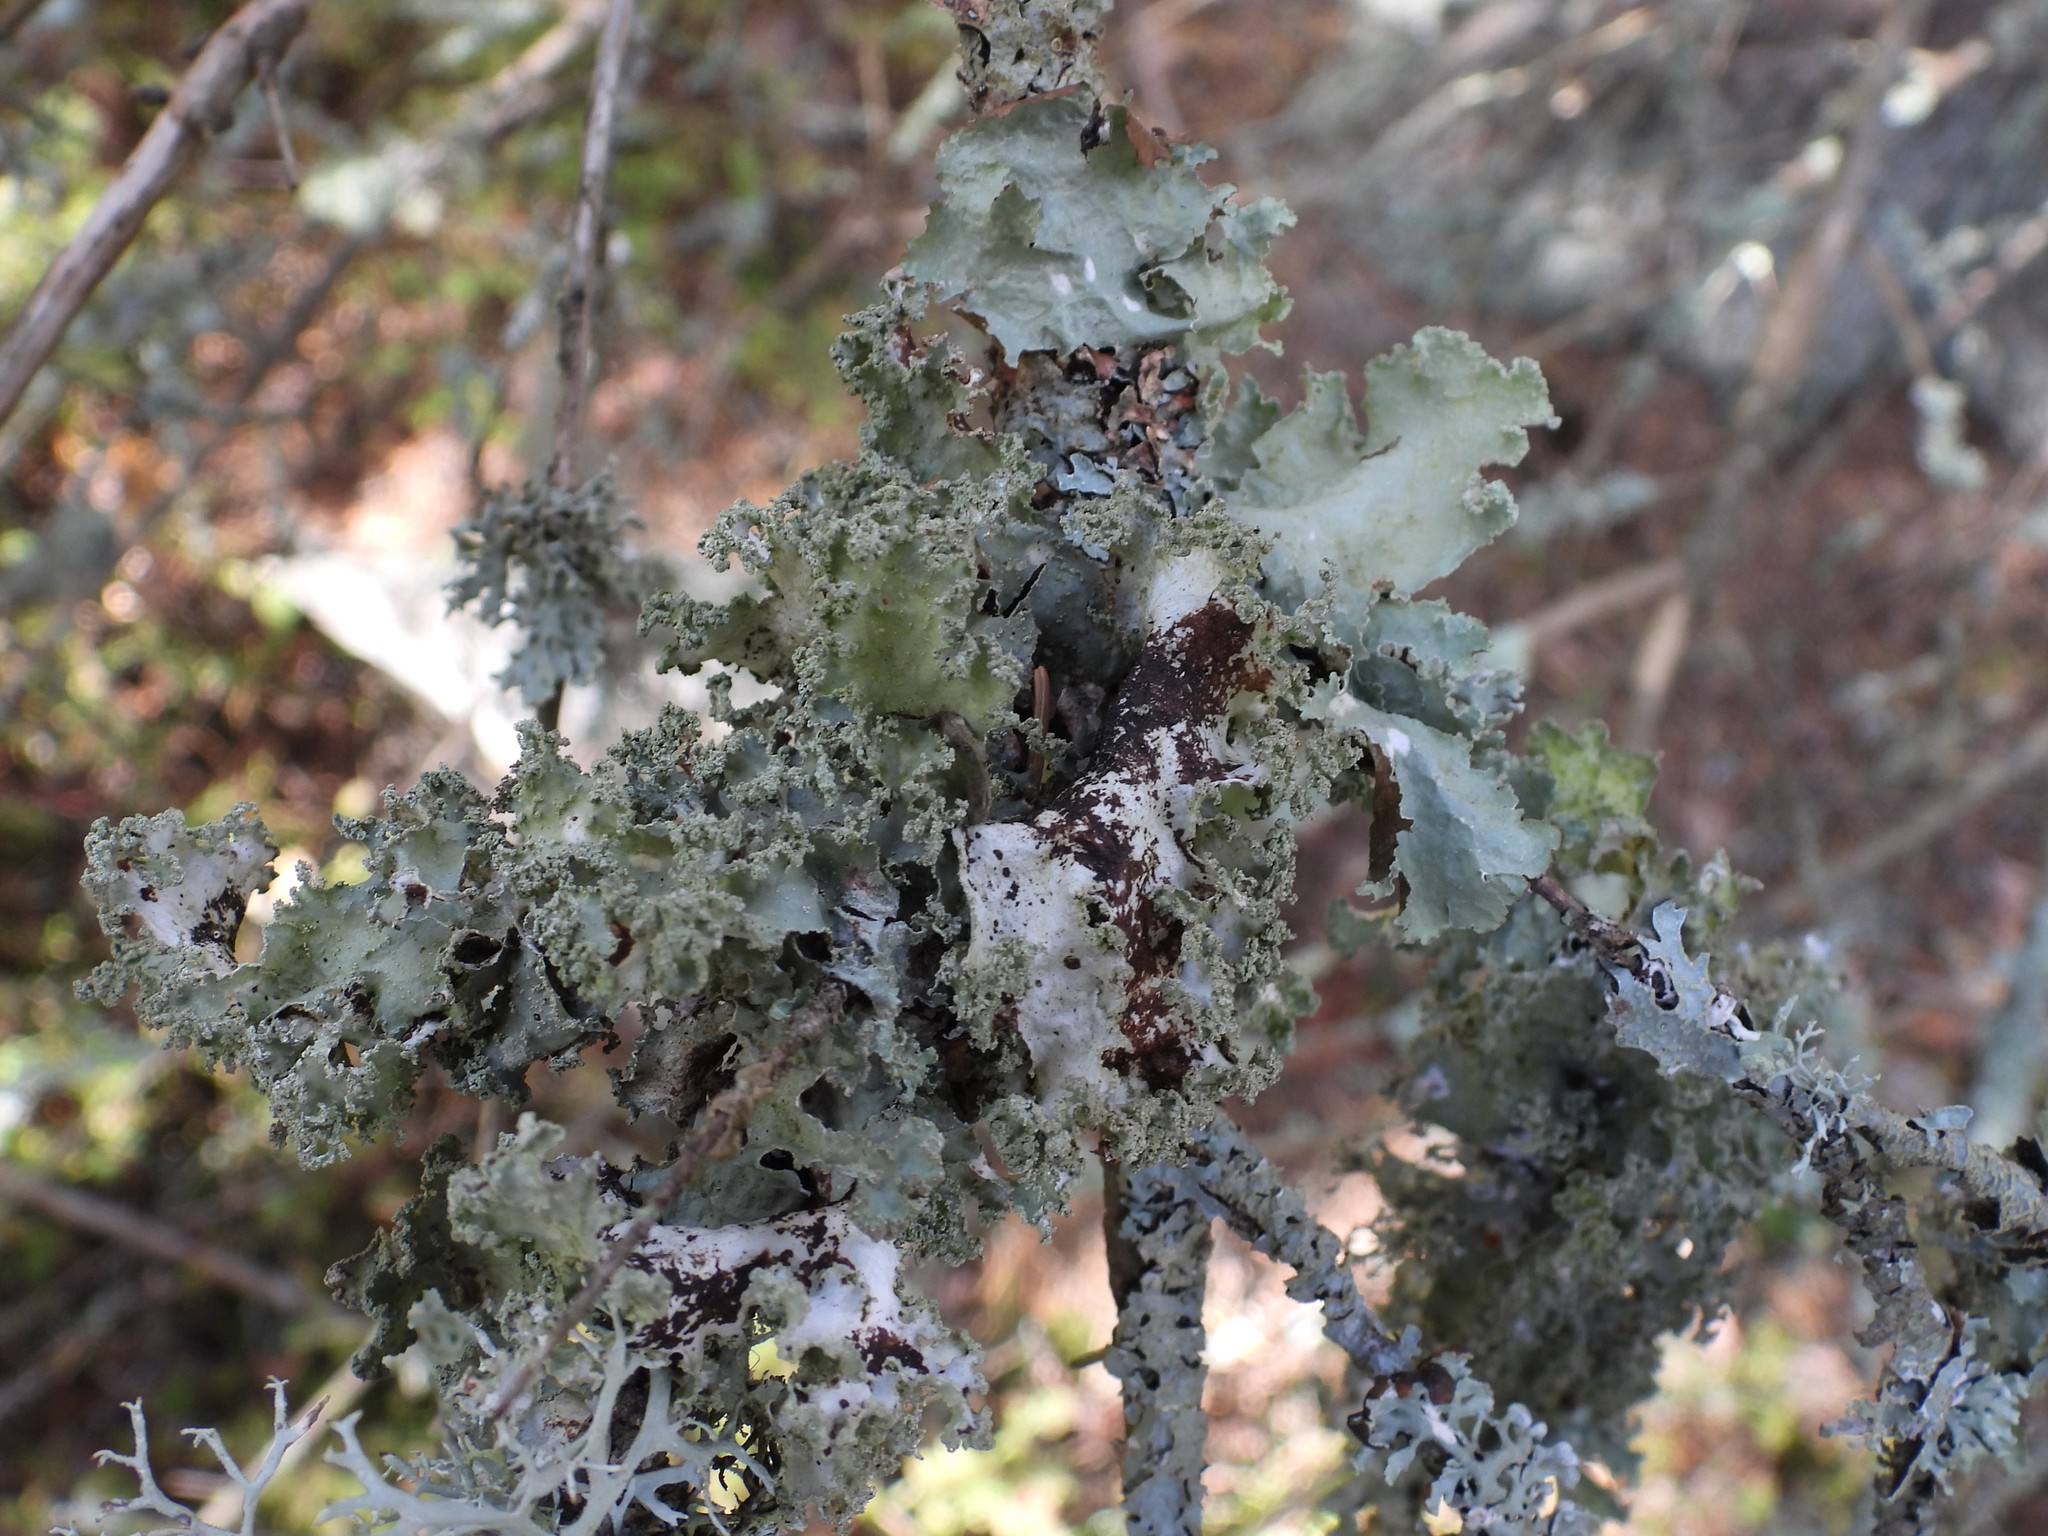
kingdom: Fungi
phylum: Ascomycota
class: Lecanoromycetes
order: Lecanorales
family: Parmeliaceae
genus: Platismatia
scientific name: Platismatia glauca
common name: Varied rag lichen
